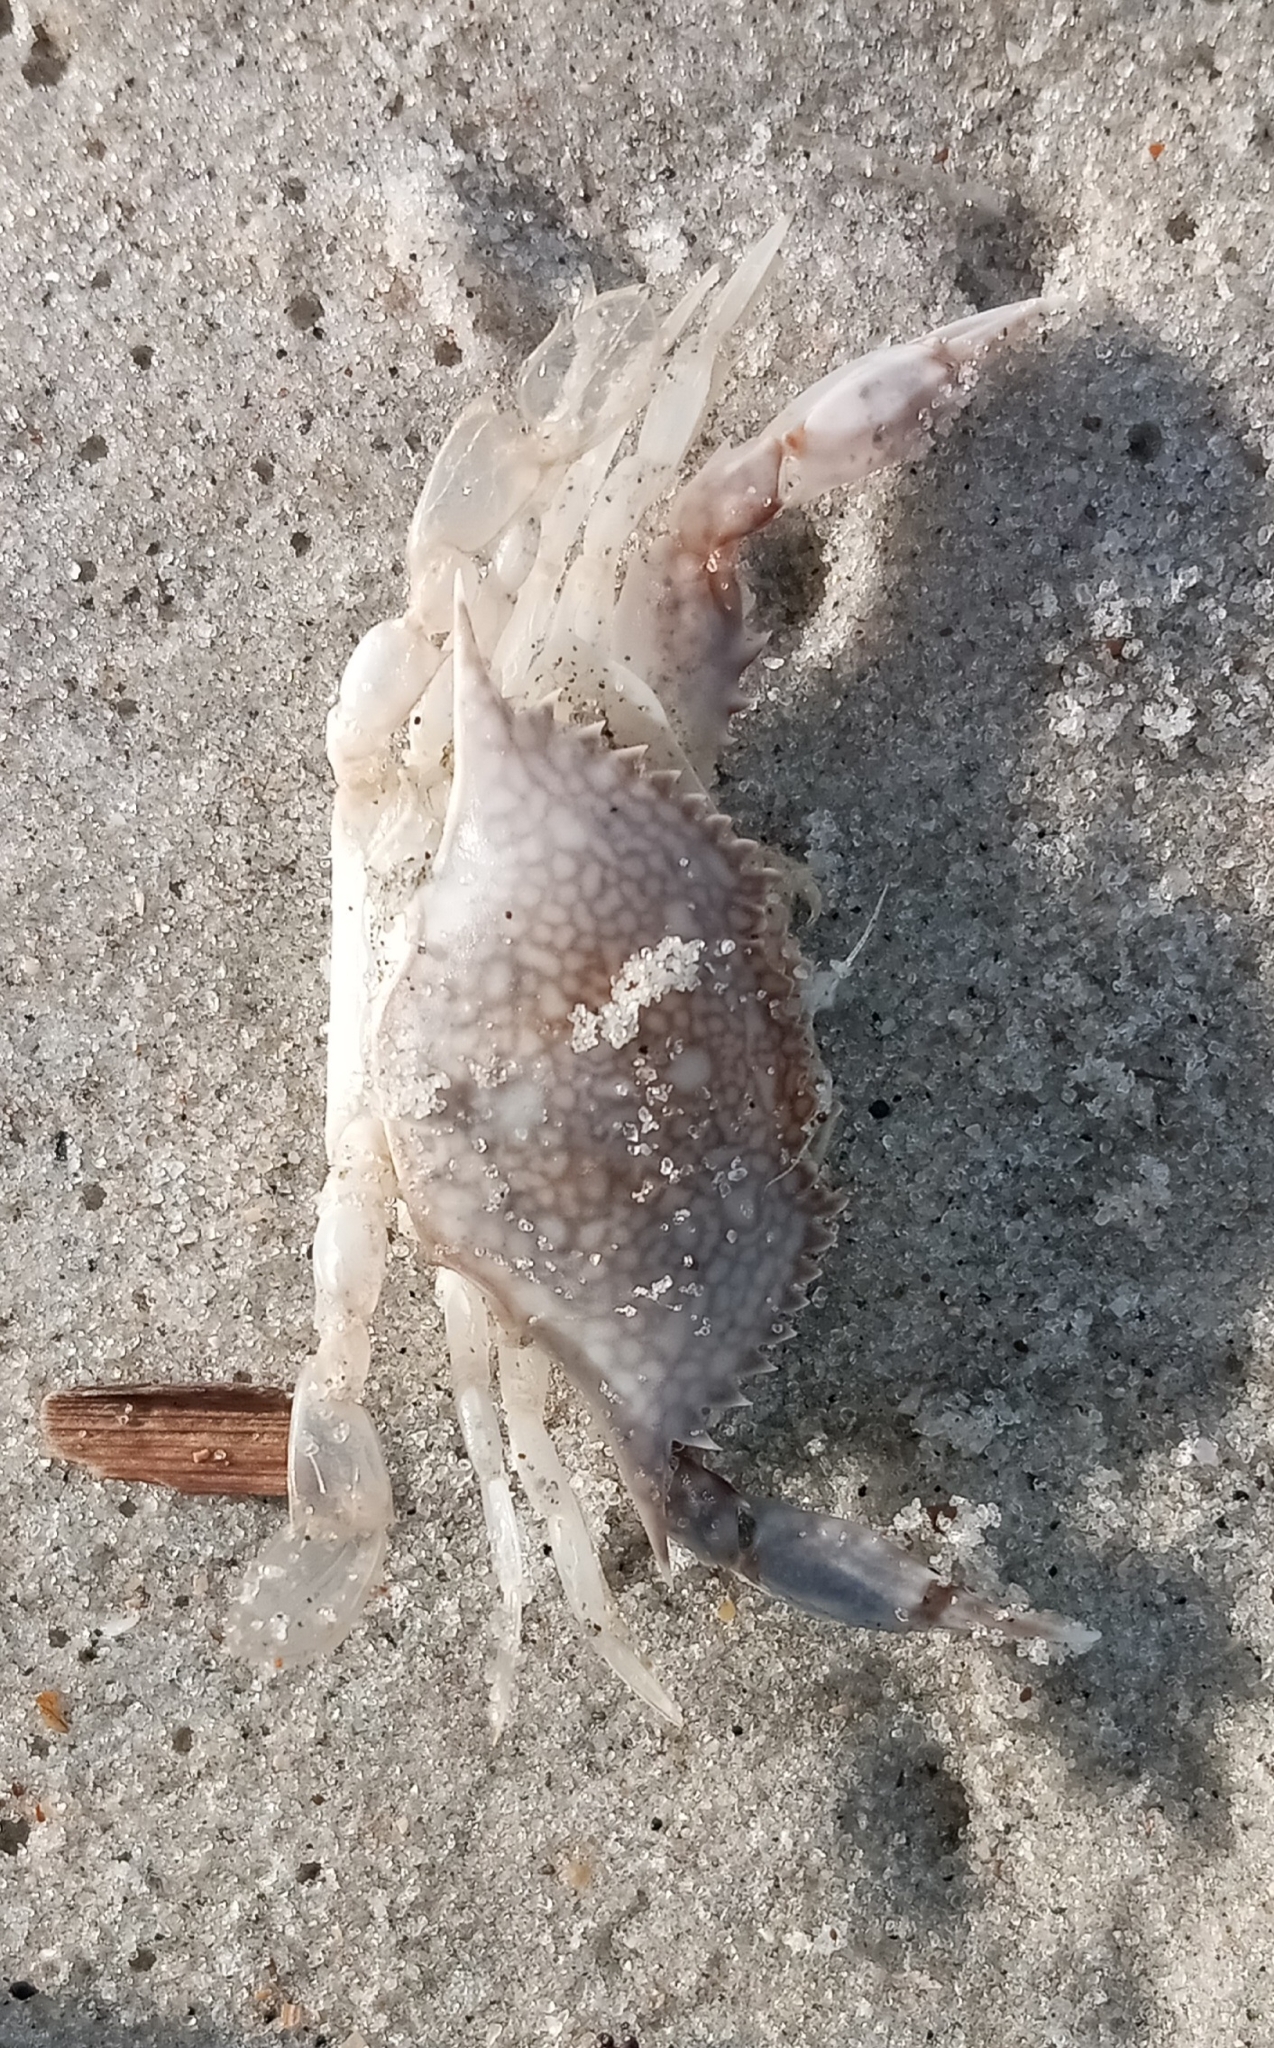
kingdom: Animalia
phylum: Arthropoda
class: Malacostraca
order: Decapoda
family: Portunidae
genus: Arenaeus
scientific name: Arenaeus cribrarius
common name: Speckled crab
